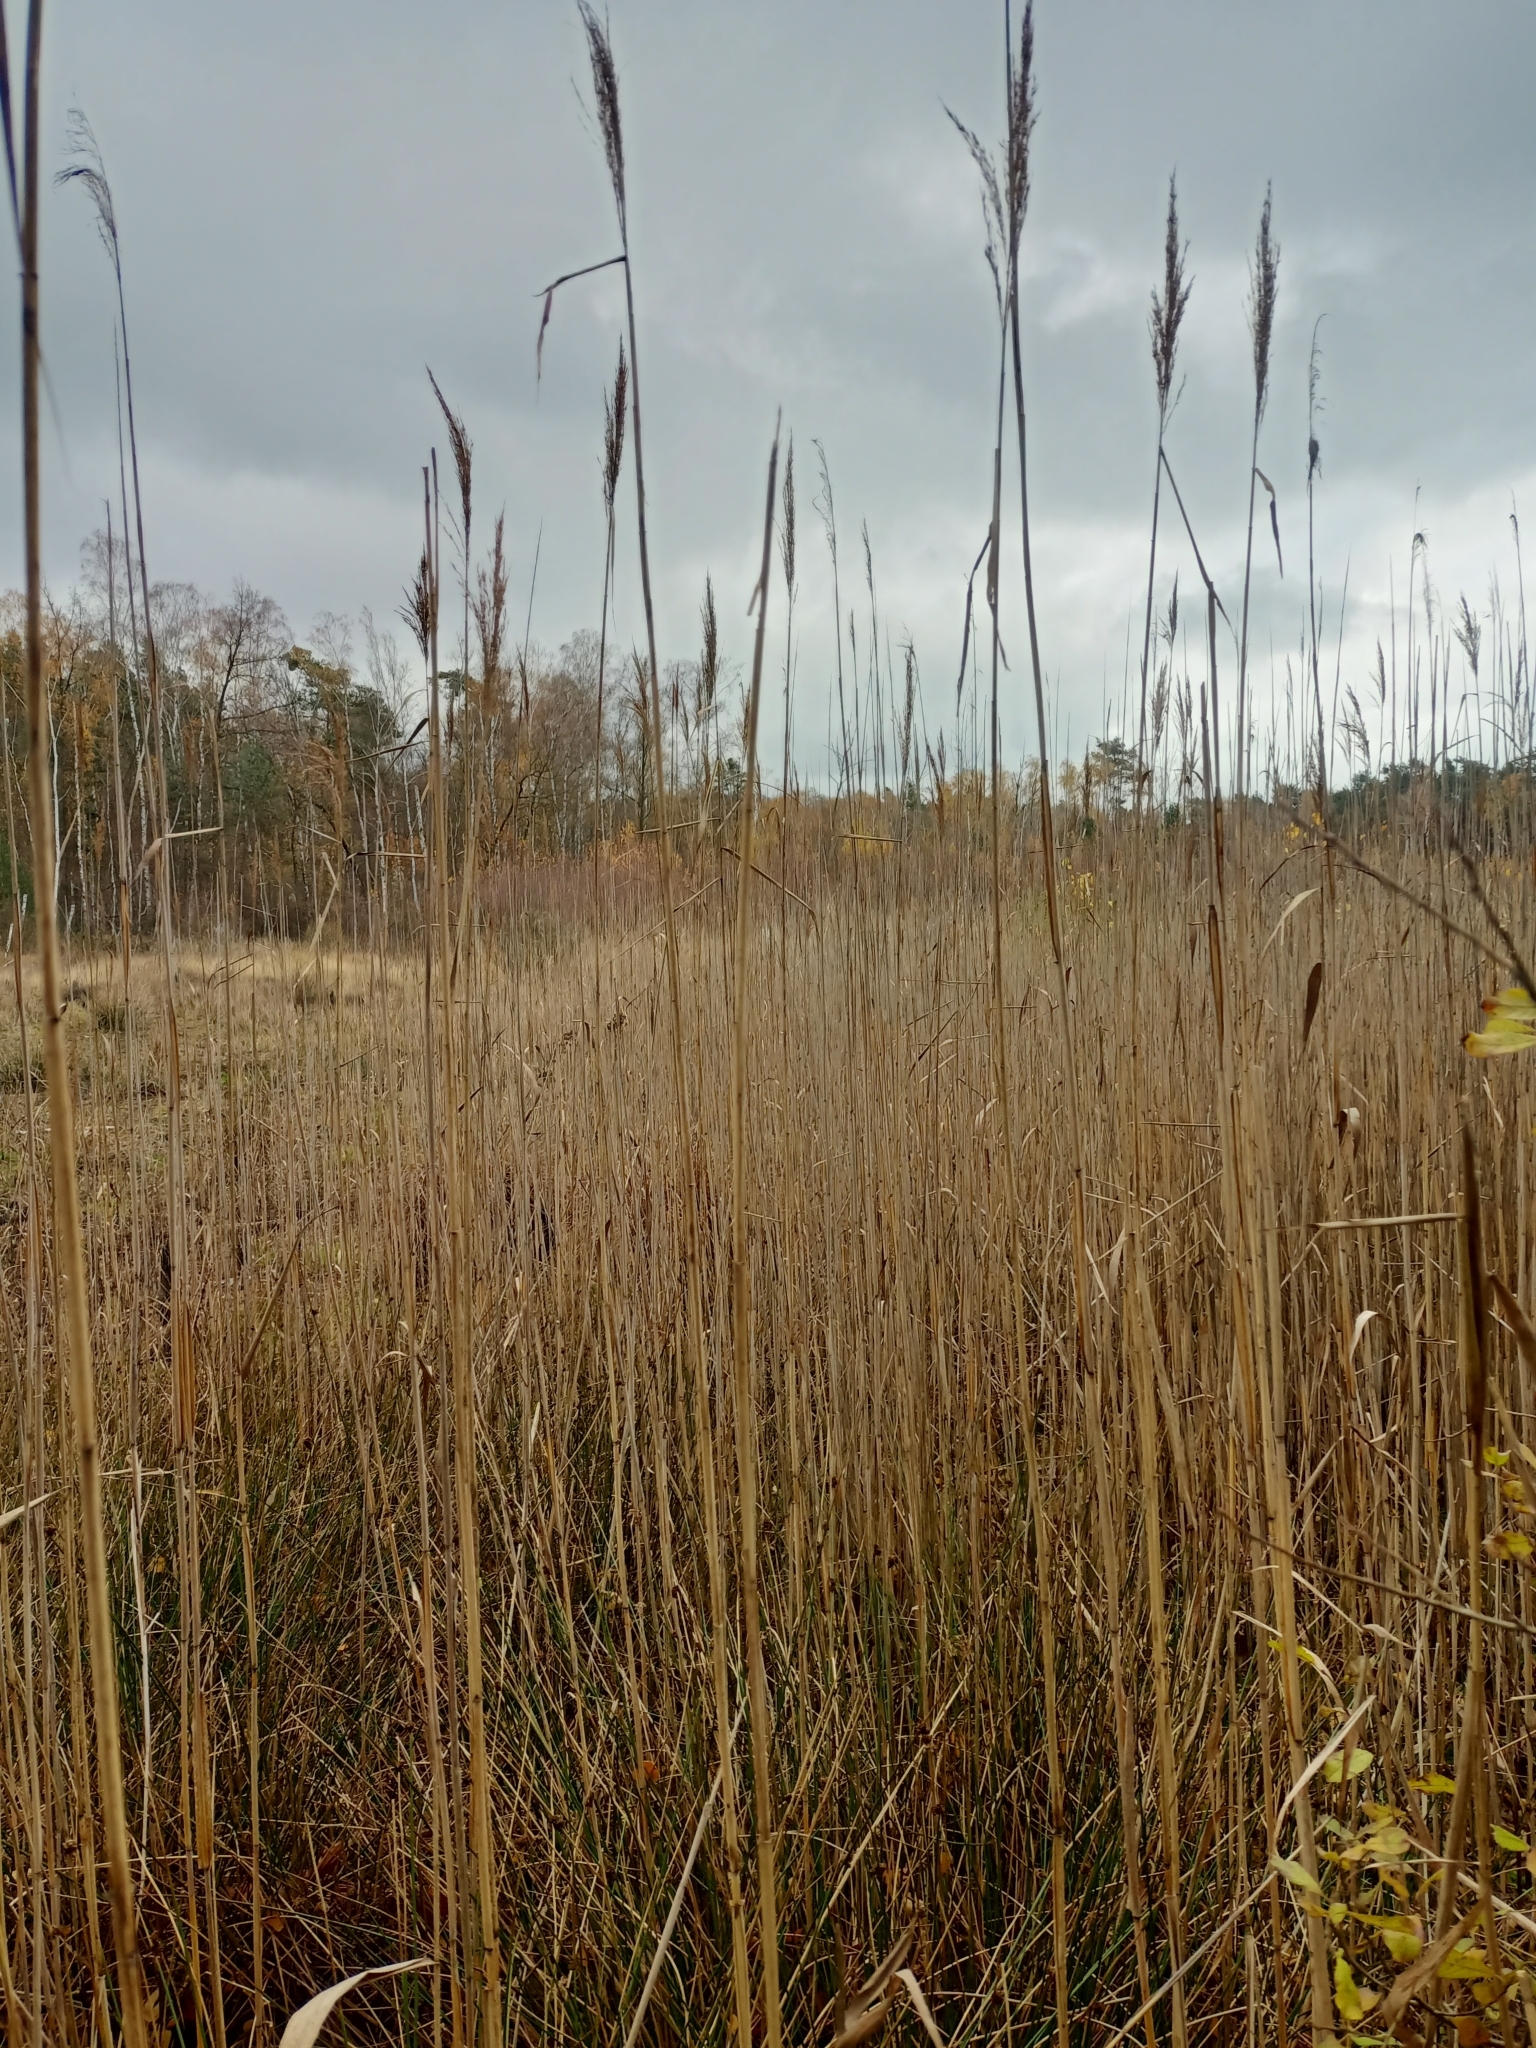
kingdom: Plantae
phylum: Tracheophyta
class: Liliopsida
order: Poales
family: Poaceae
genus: Phragmites
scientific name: Phragmites australis
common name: Common reed
